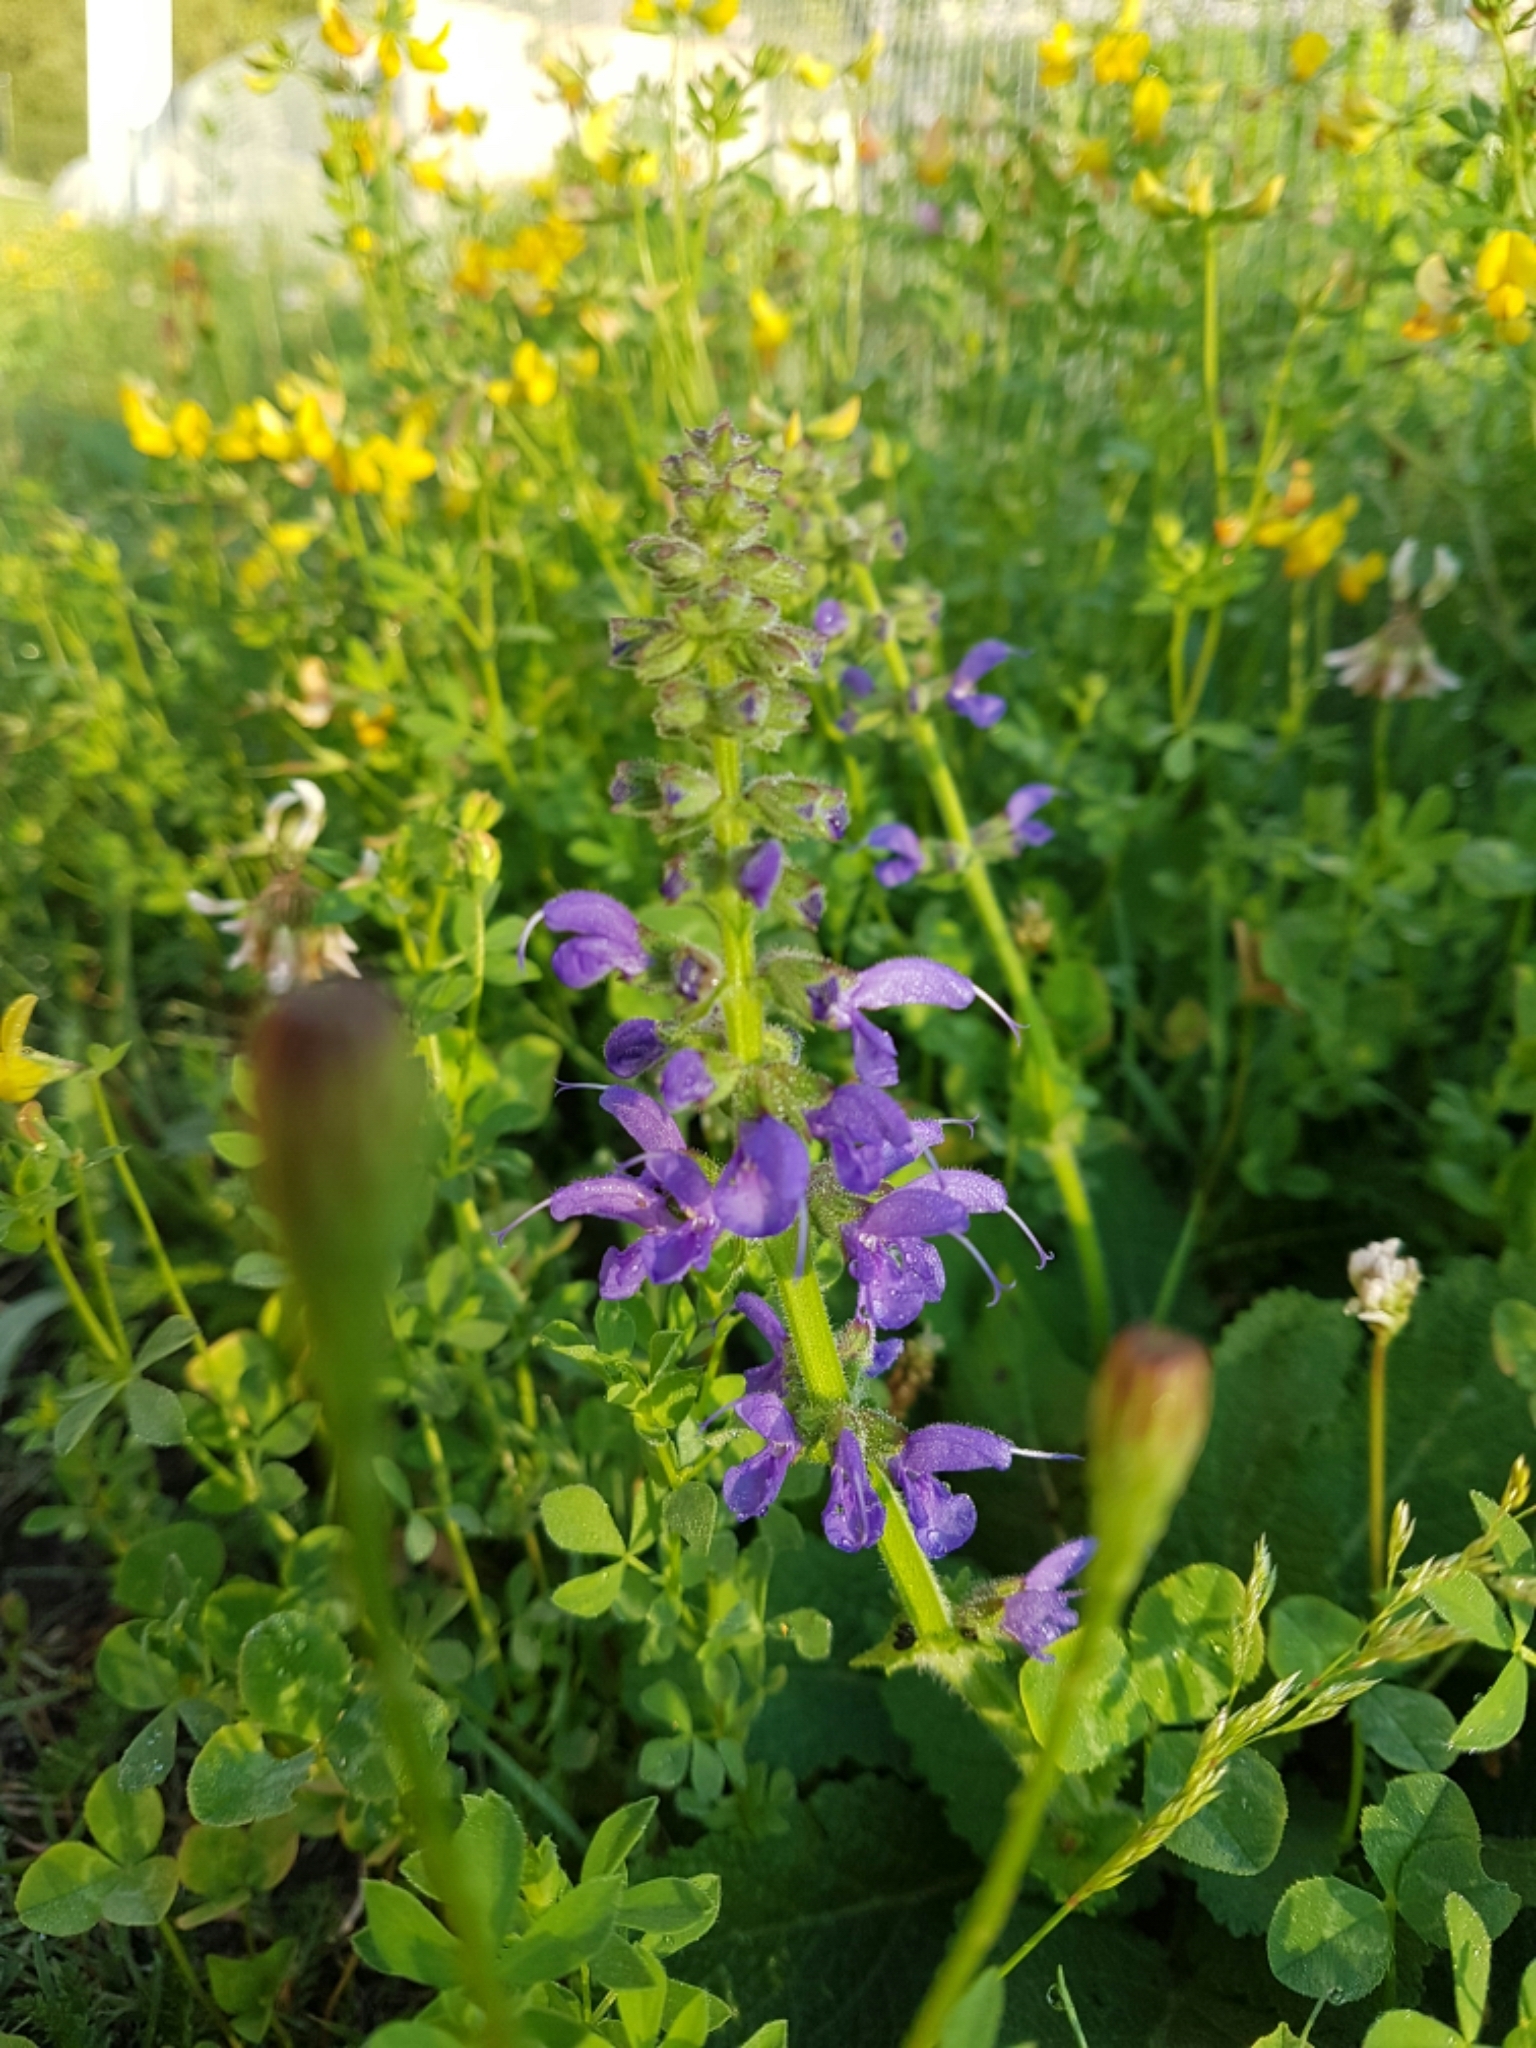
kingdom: Plantae
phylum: Tracheophyta
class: Magnoliopsida
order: Lamiales
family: Lamiaceae
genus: Salvia
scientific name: Salvia pratensis
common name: Meadow sage
